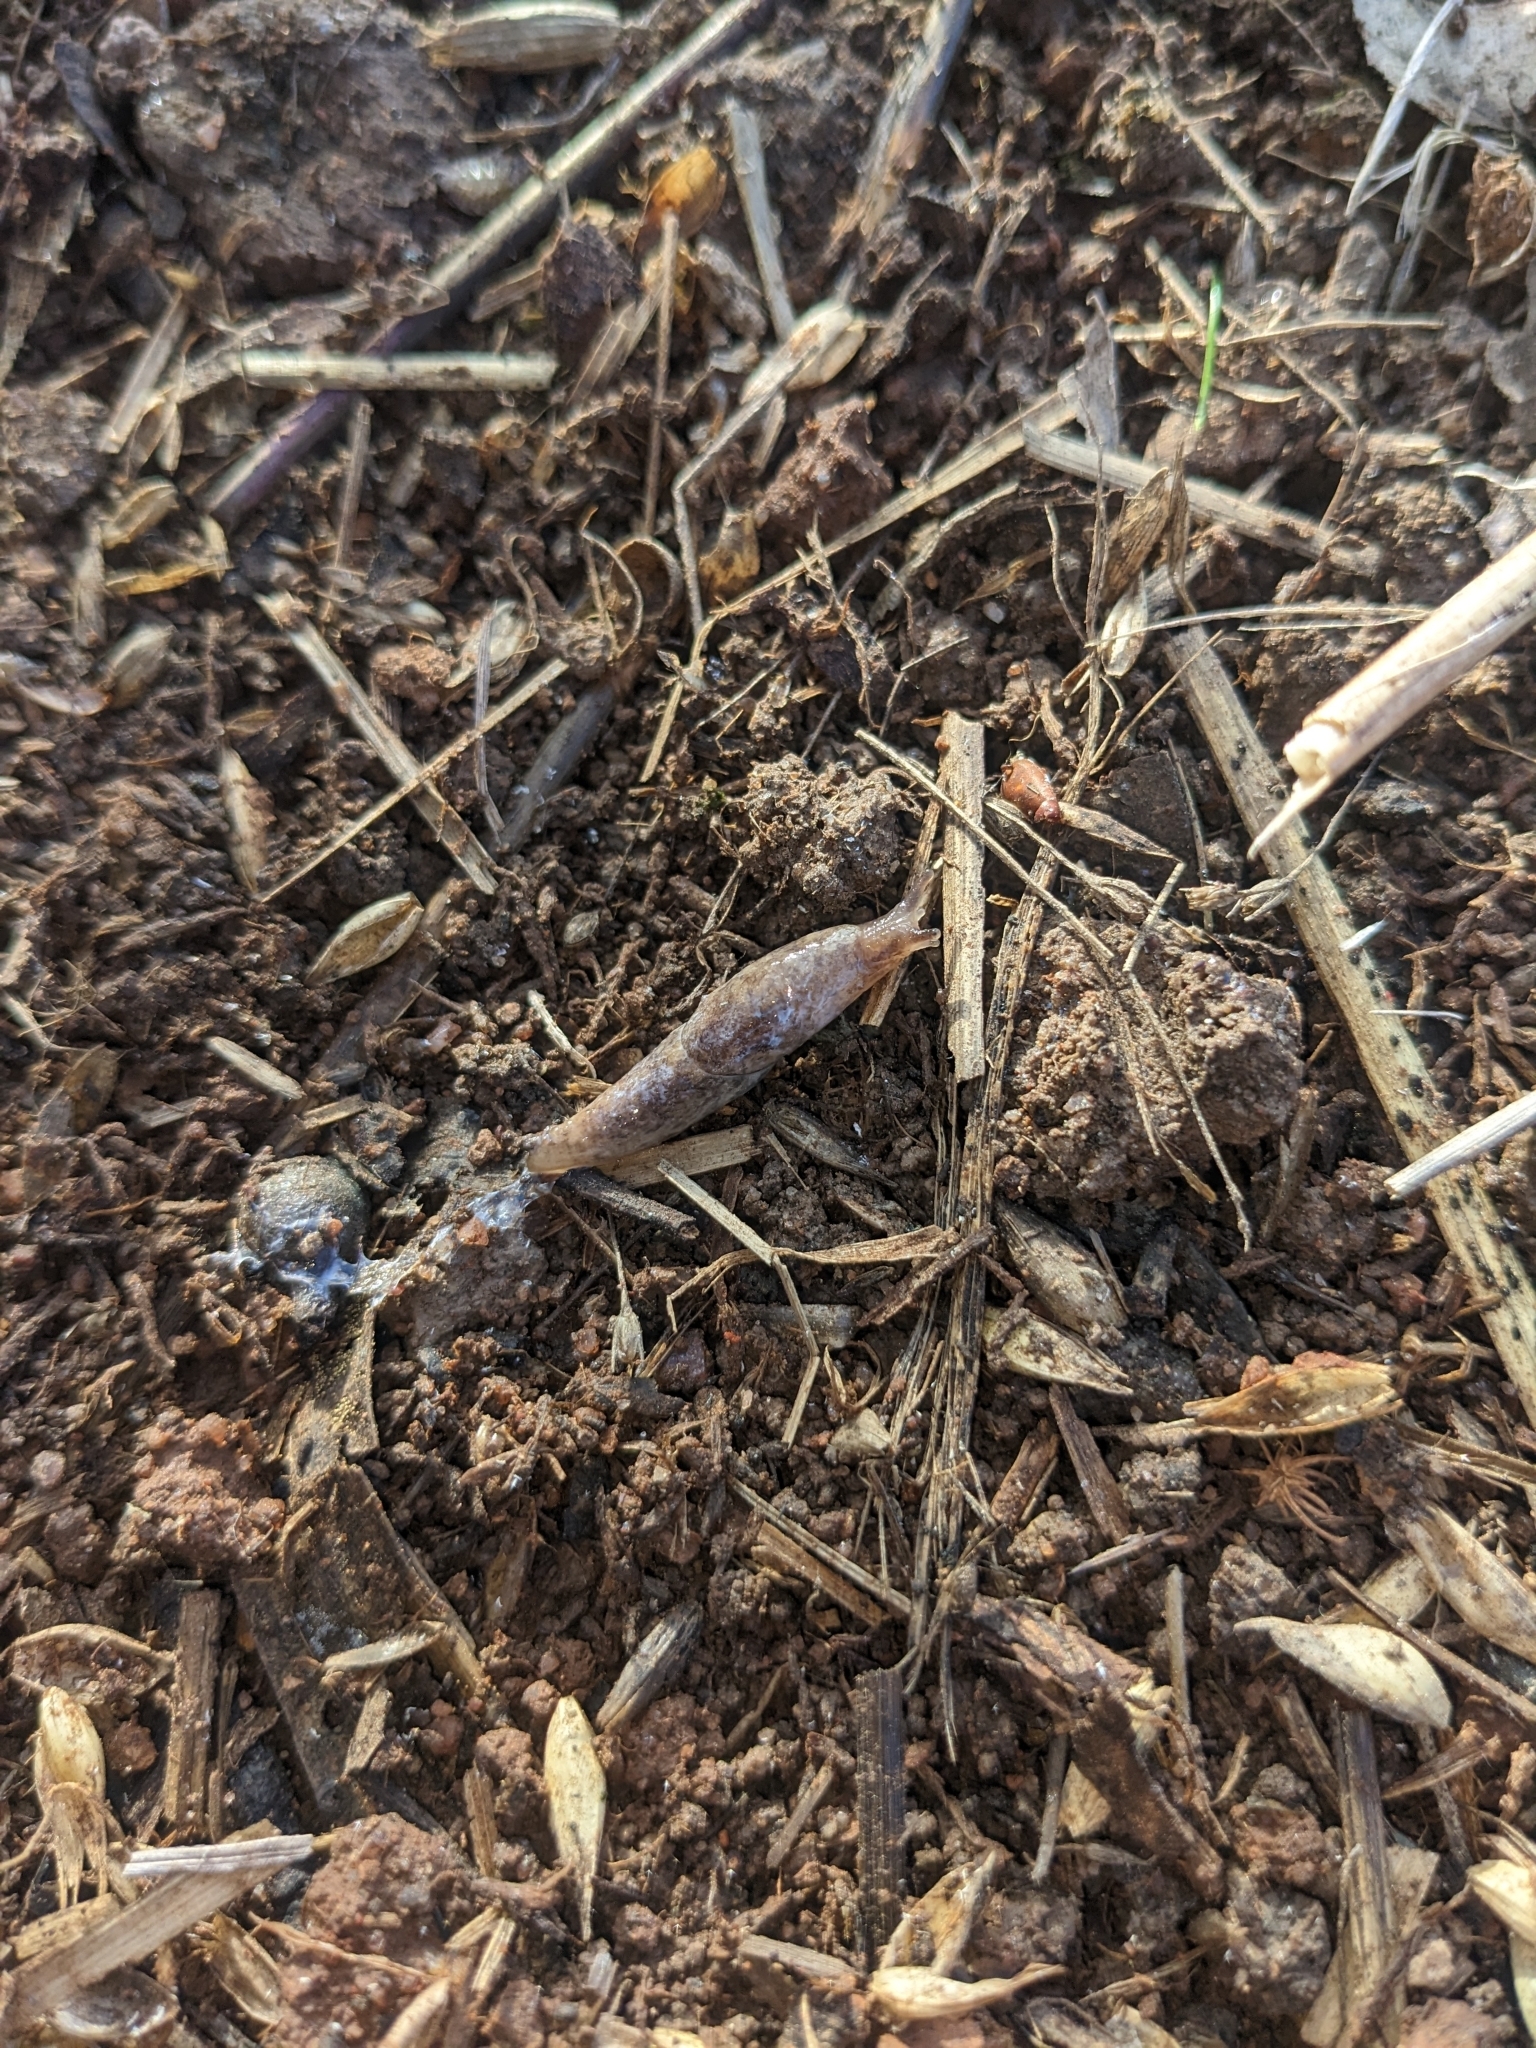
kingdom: Animalia
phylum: Mollusca
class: Gastropoda
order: Stylommatophora
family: Agriolimacidae
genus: Deroceras
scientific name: Deroceras reticulatum
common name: Gray field slug
